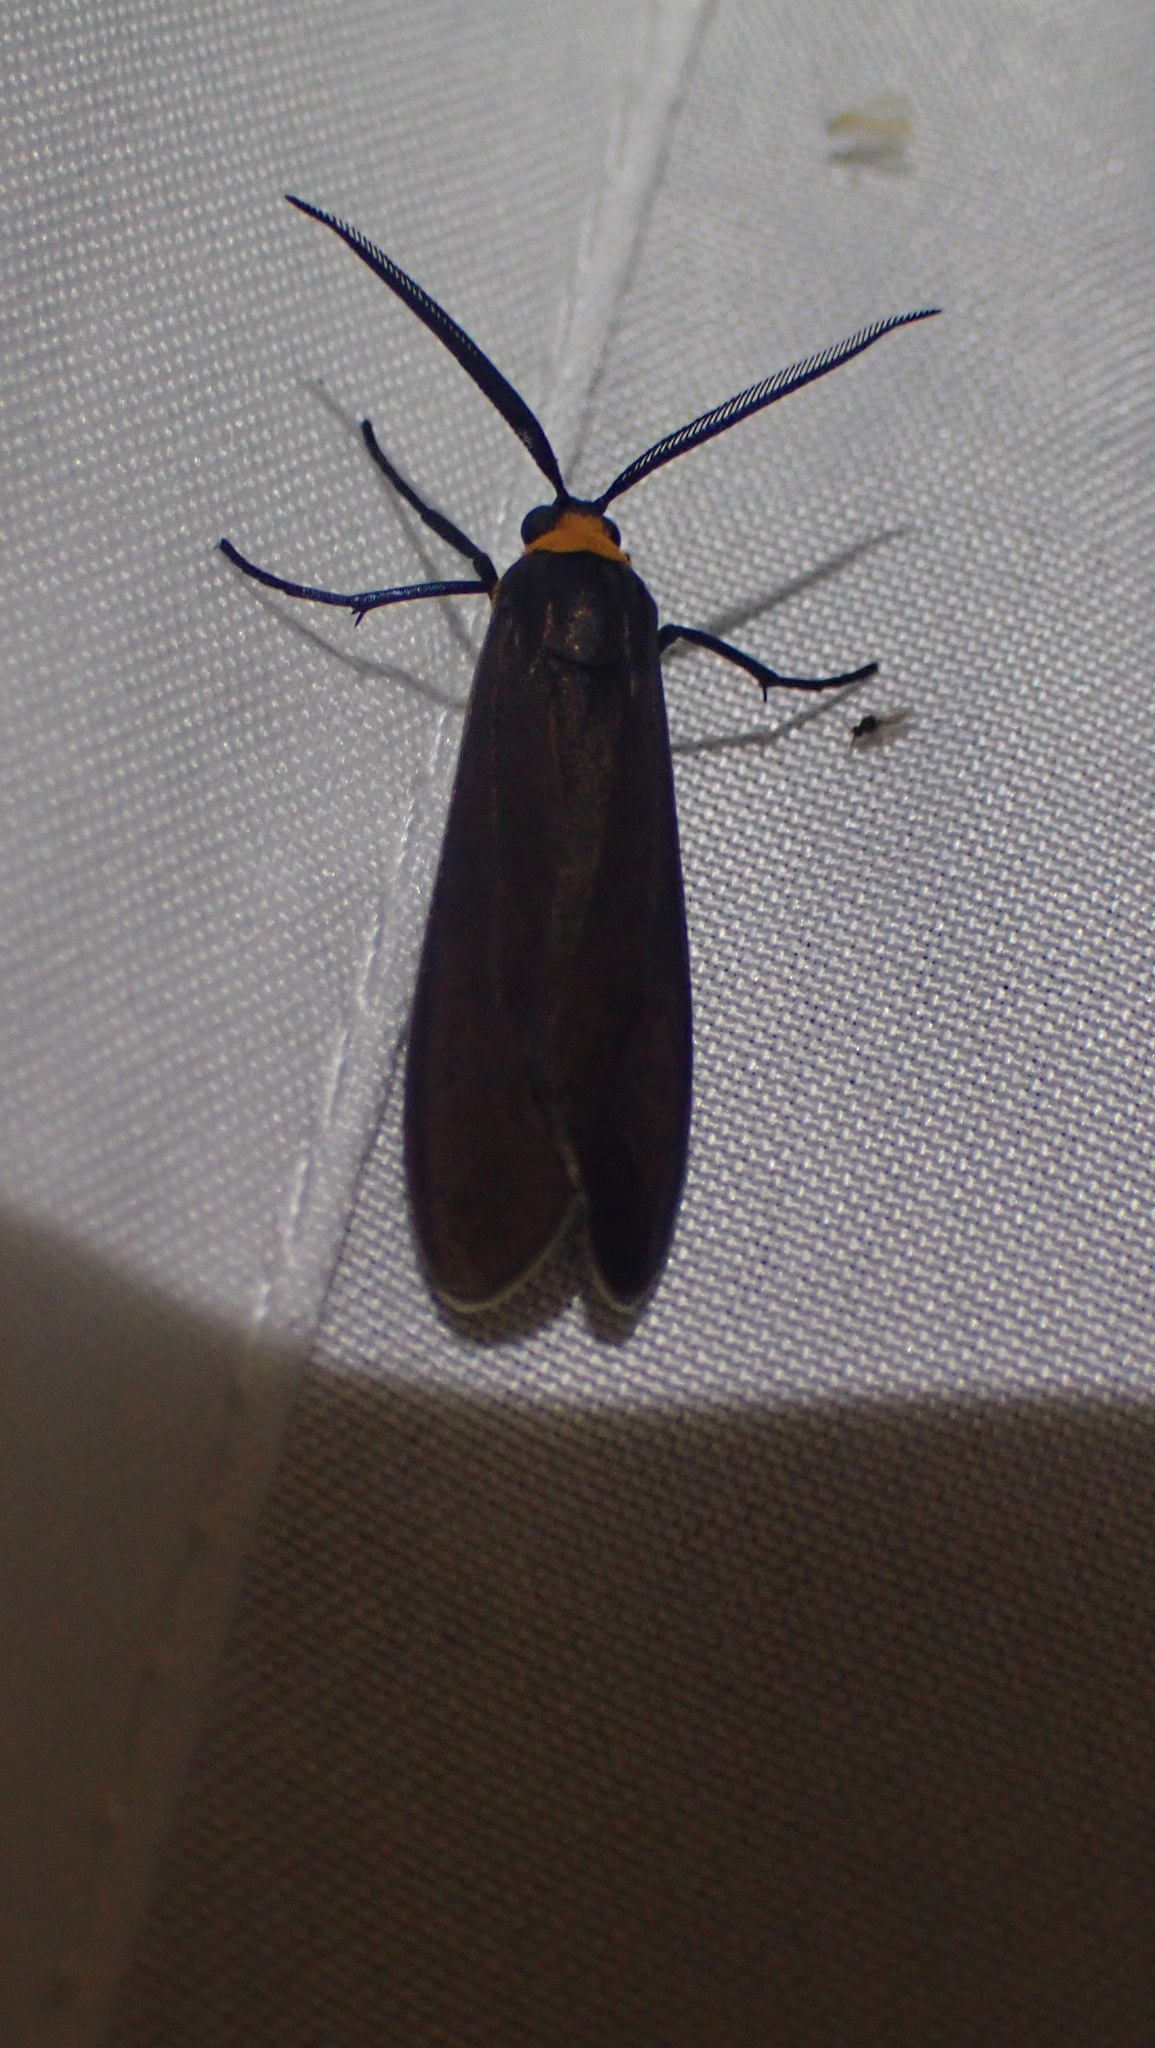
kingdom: Animalia
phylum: Arthropoda
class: Insecta
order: Lepidoptera
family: Erebidae
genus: Cisseps
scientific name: Cisseps fulvicollis
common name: Yellow-collared scape moth
